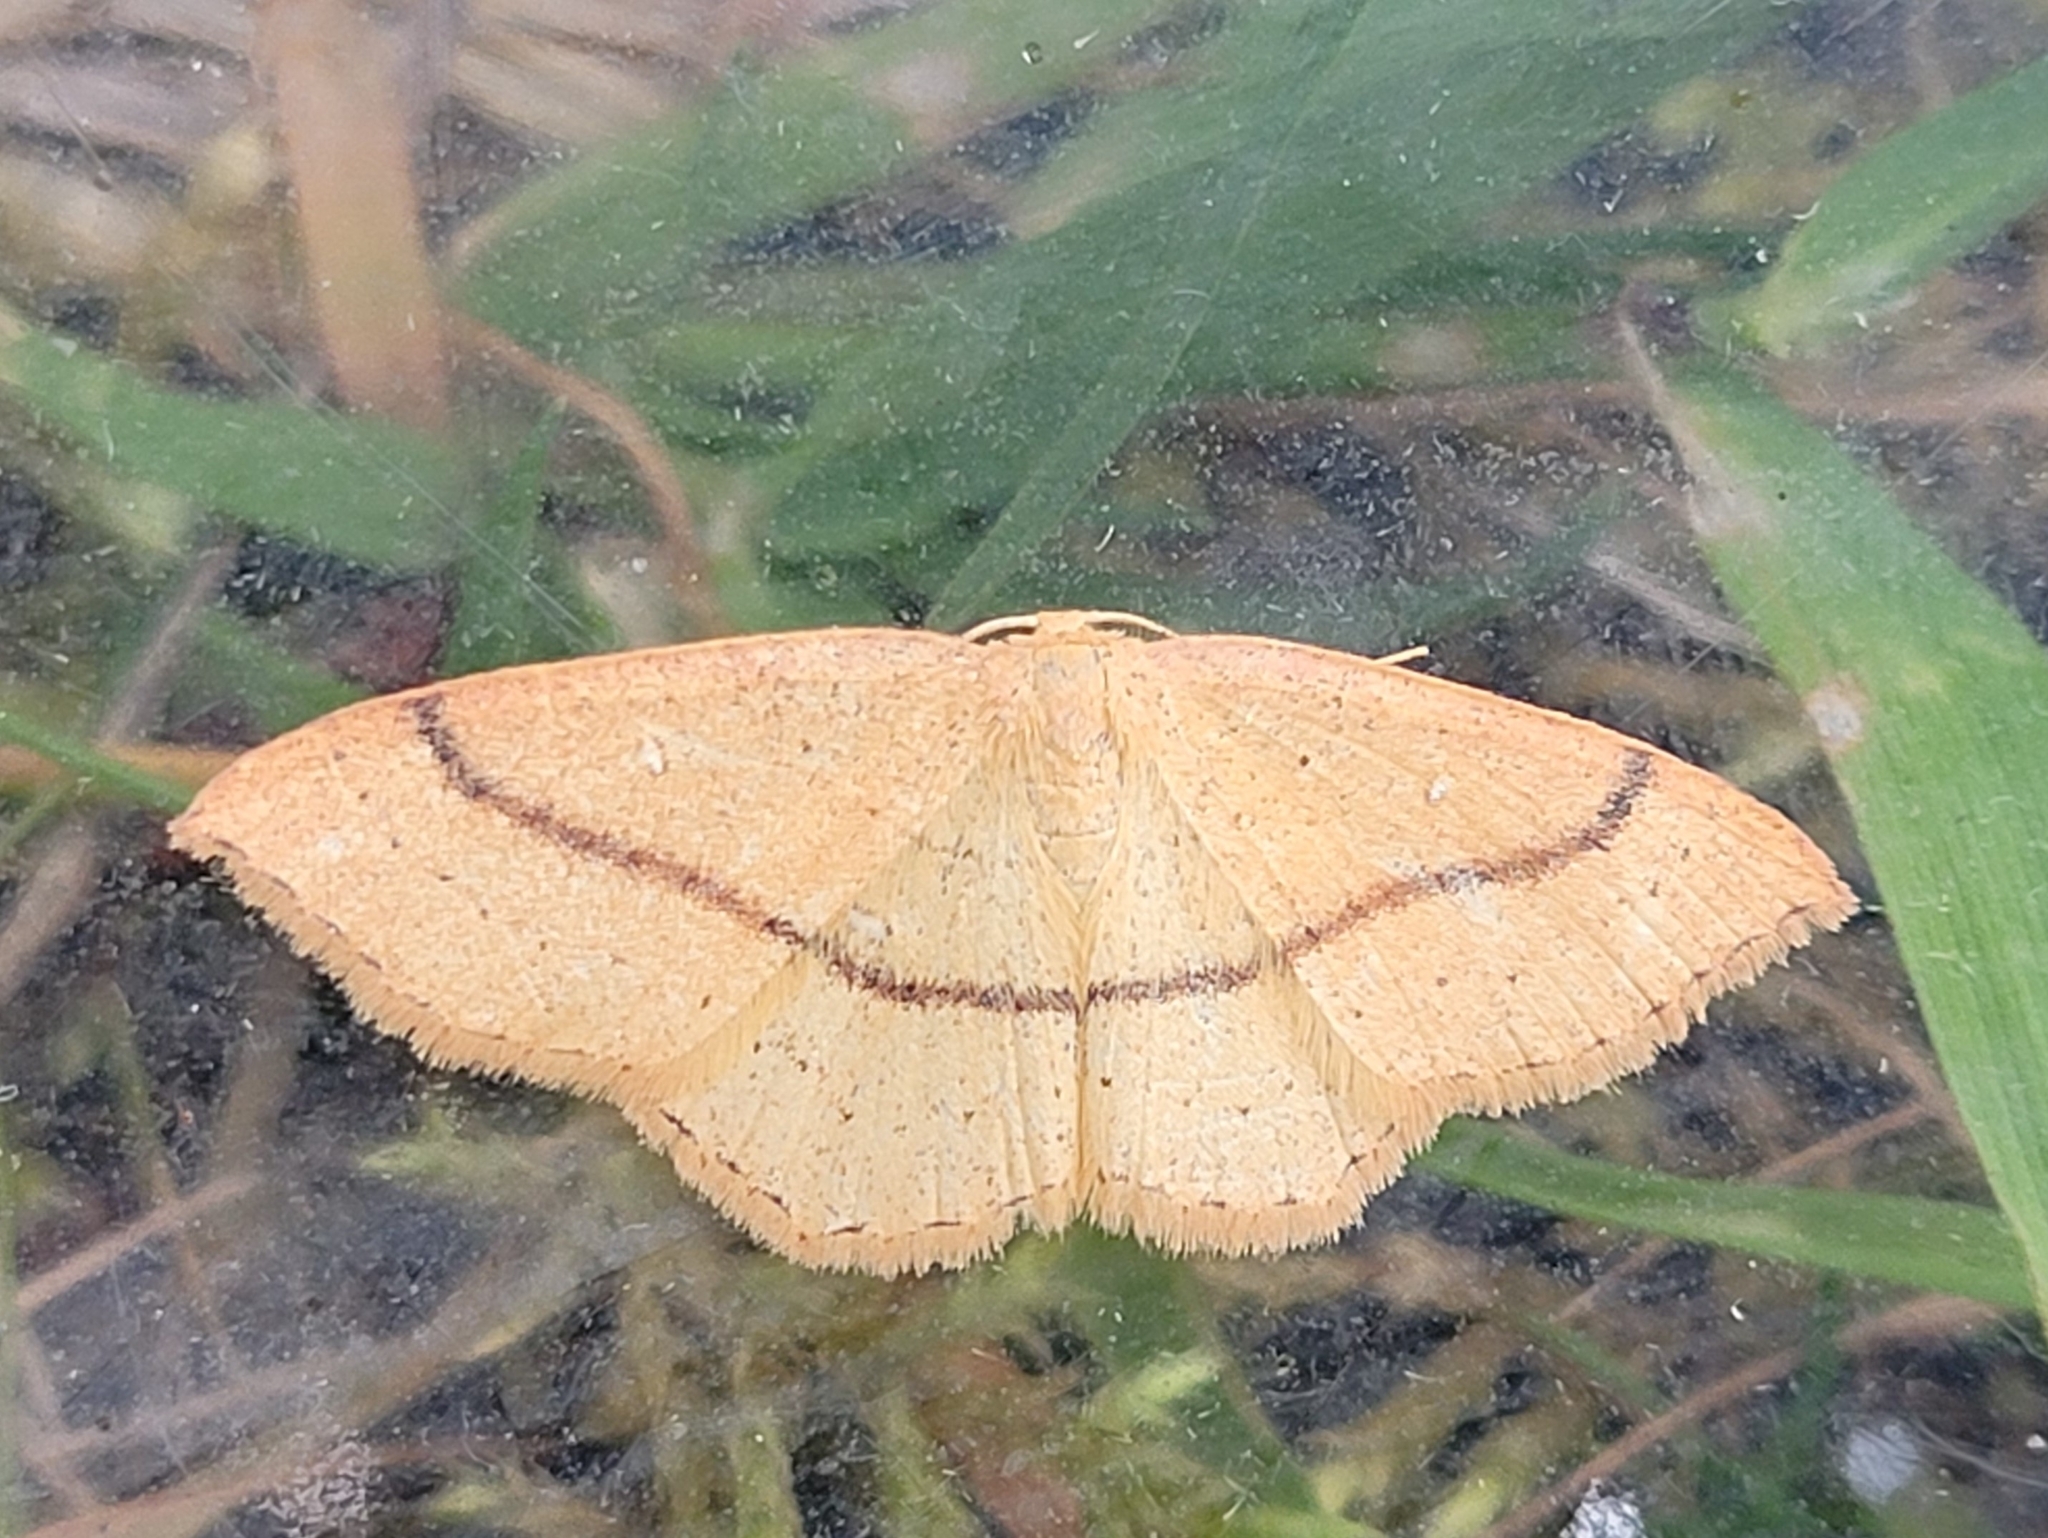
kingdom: Animalia
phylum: Arthropoda
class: Insecta
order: Lepidoptera
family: Geometridae
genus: Cyclophora
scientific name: Cyclophora linearia
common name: Clay triple-lines
